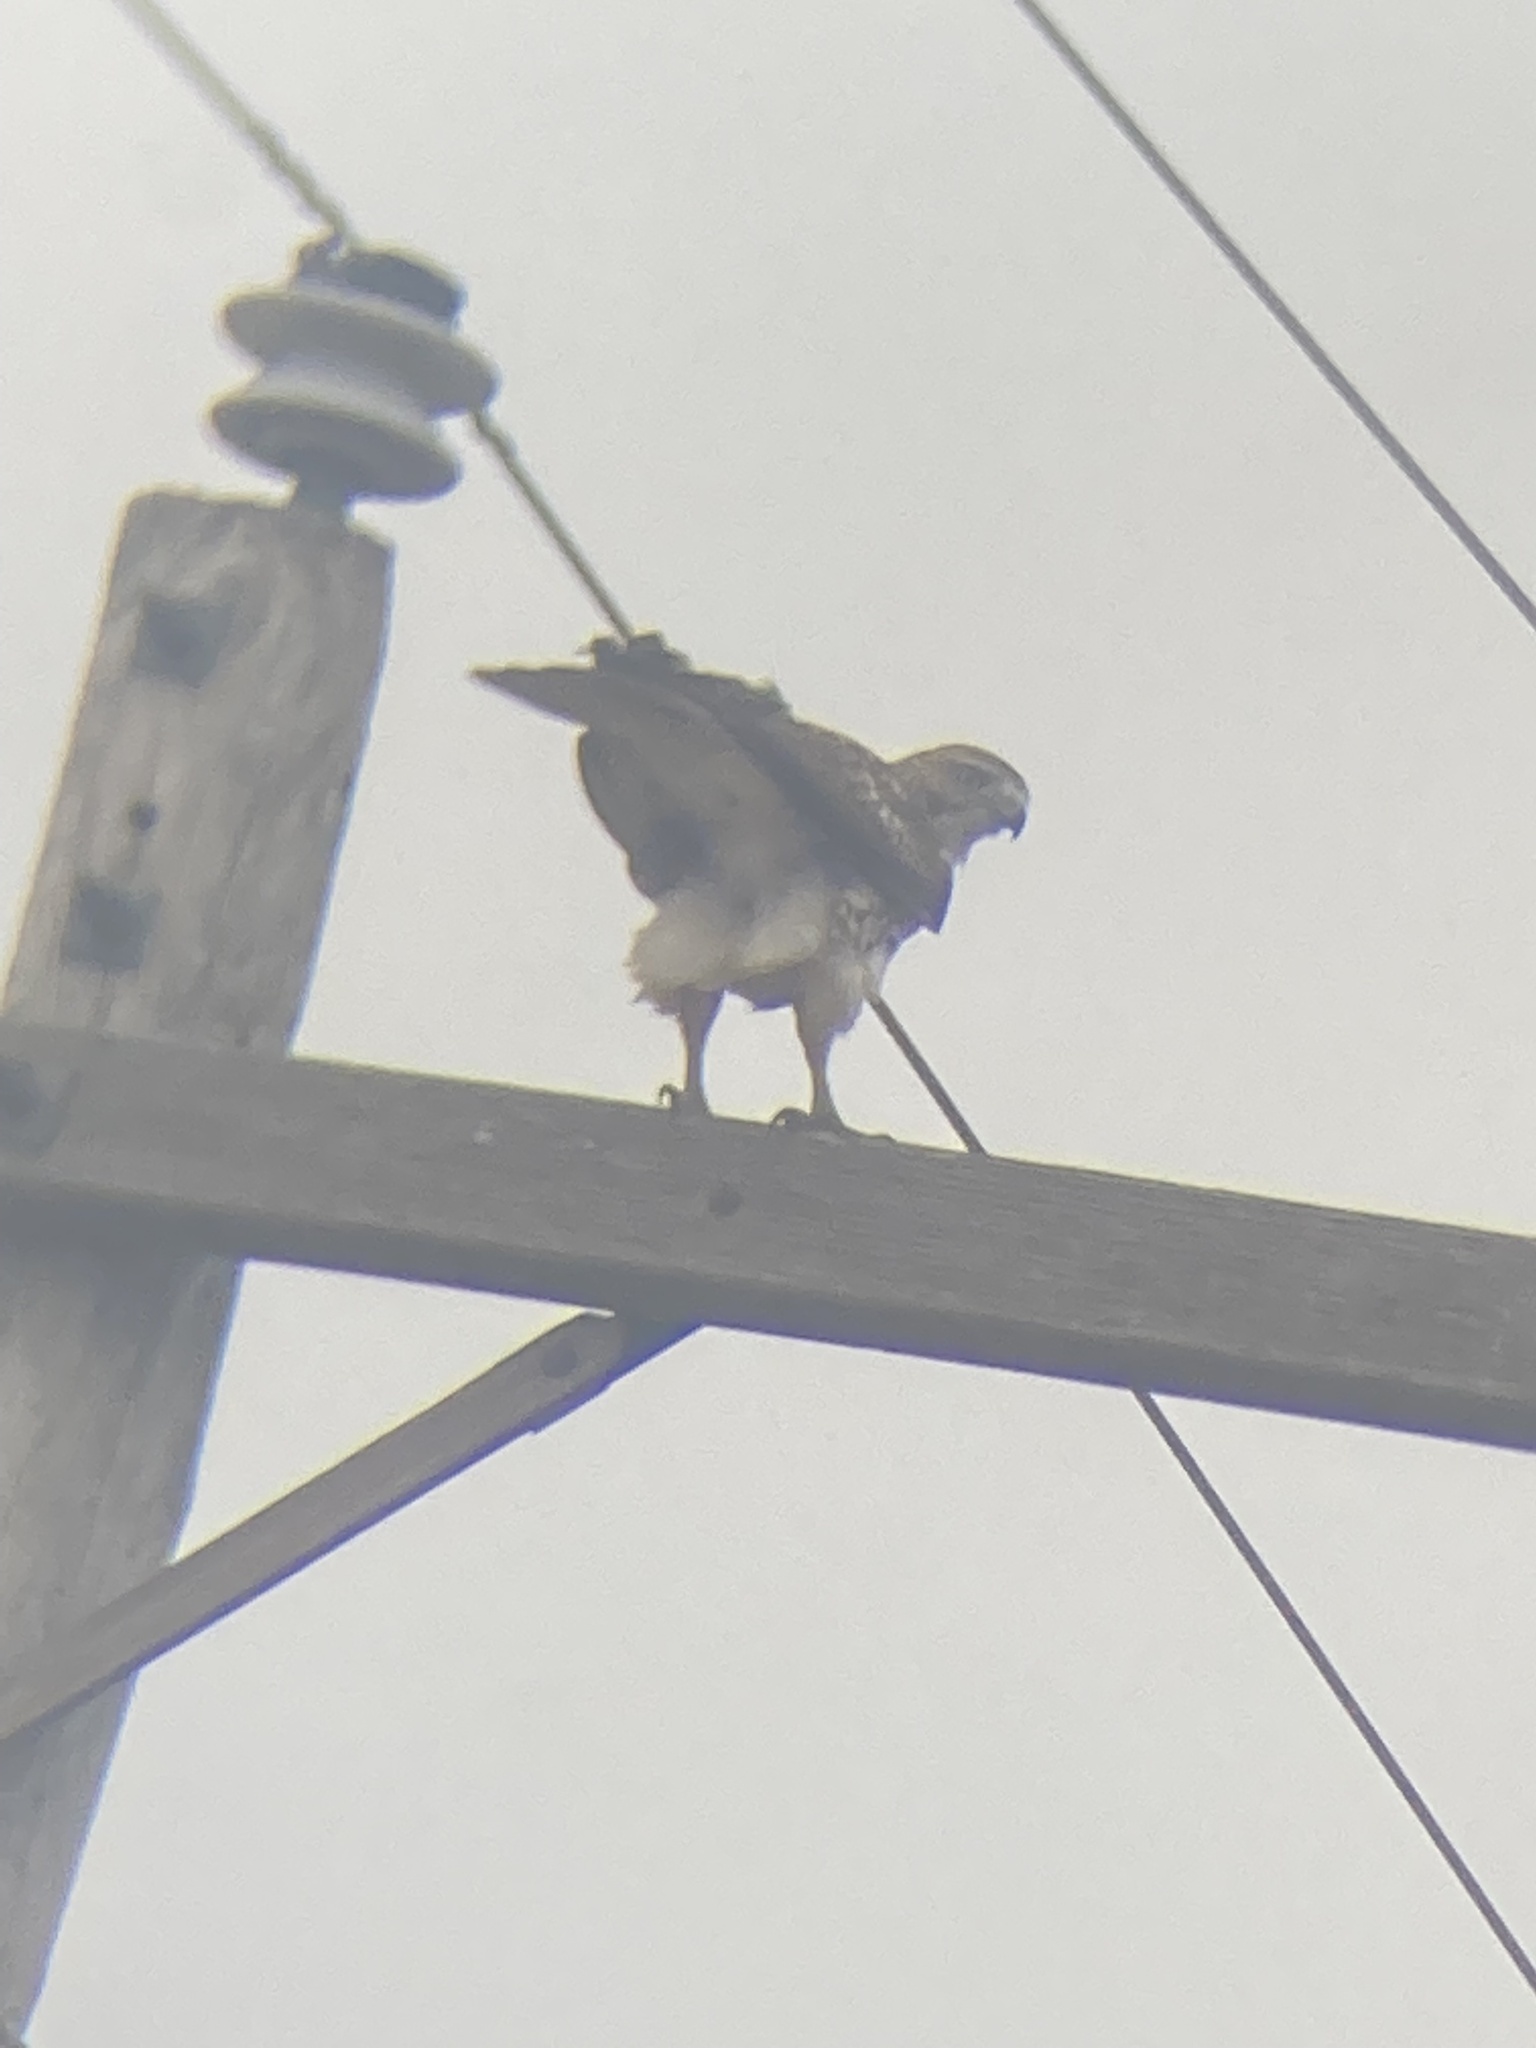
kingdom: Animalia
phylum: Chordata
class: Aves
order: Accipitriformes
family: Accipitridae
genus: Buteo
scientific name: Buteo jamaicensis
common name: Red-tailed hawk
